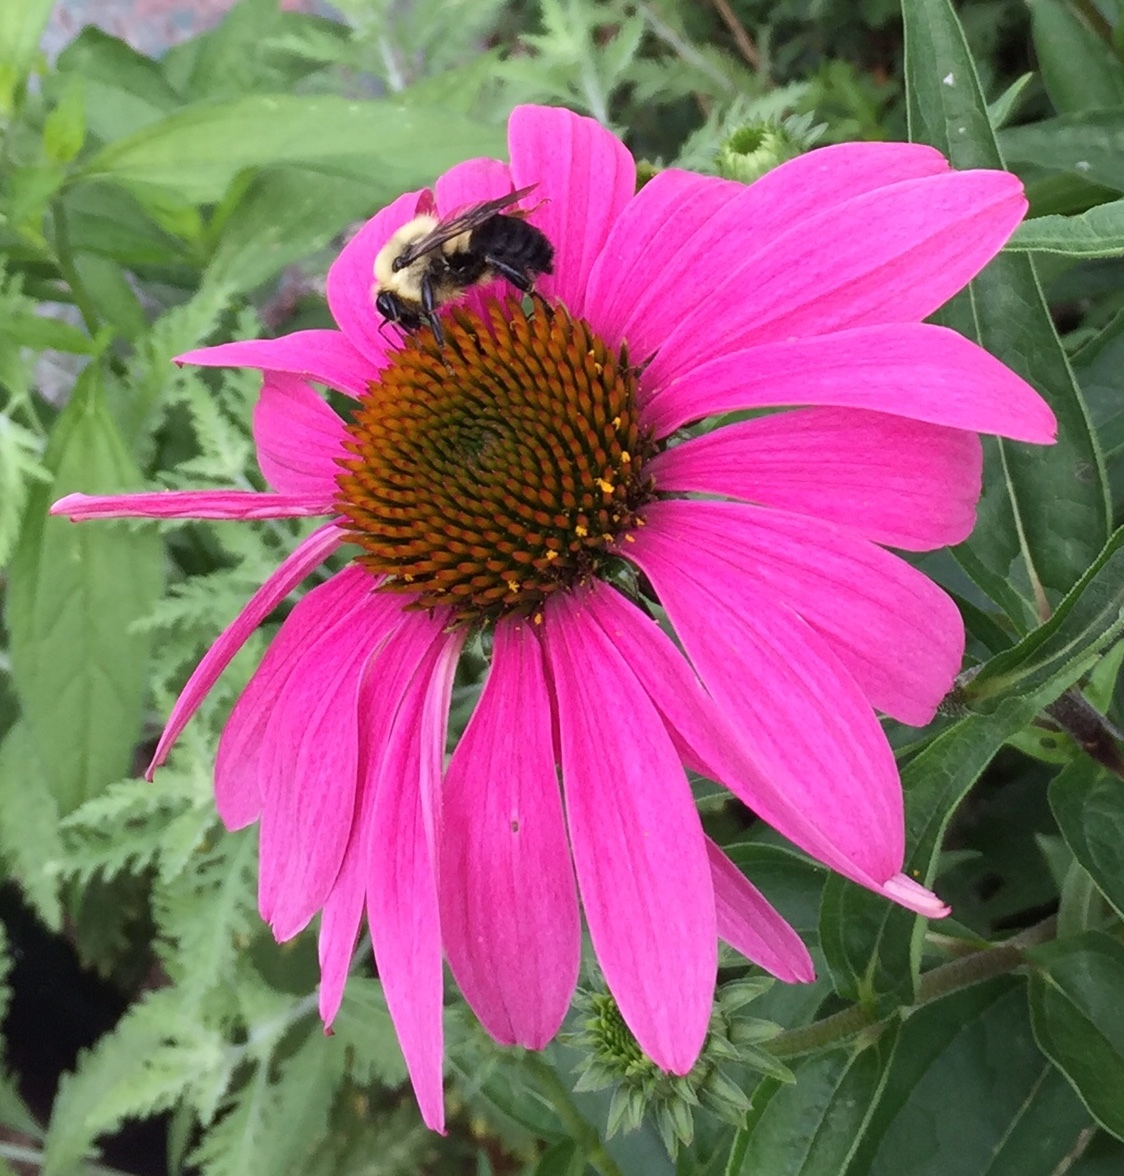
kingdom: Animalia
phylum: Arthropoda
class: Insecta
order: Hymenoptera
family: Apidae
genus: Bombus
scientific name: Bombus griseocollis
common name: Brown-belted bumble bee
